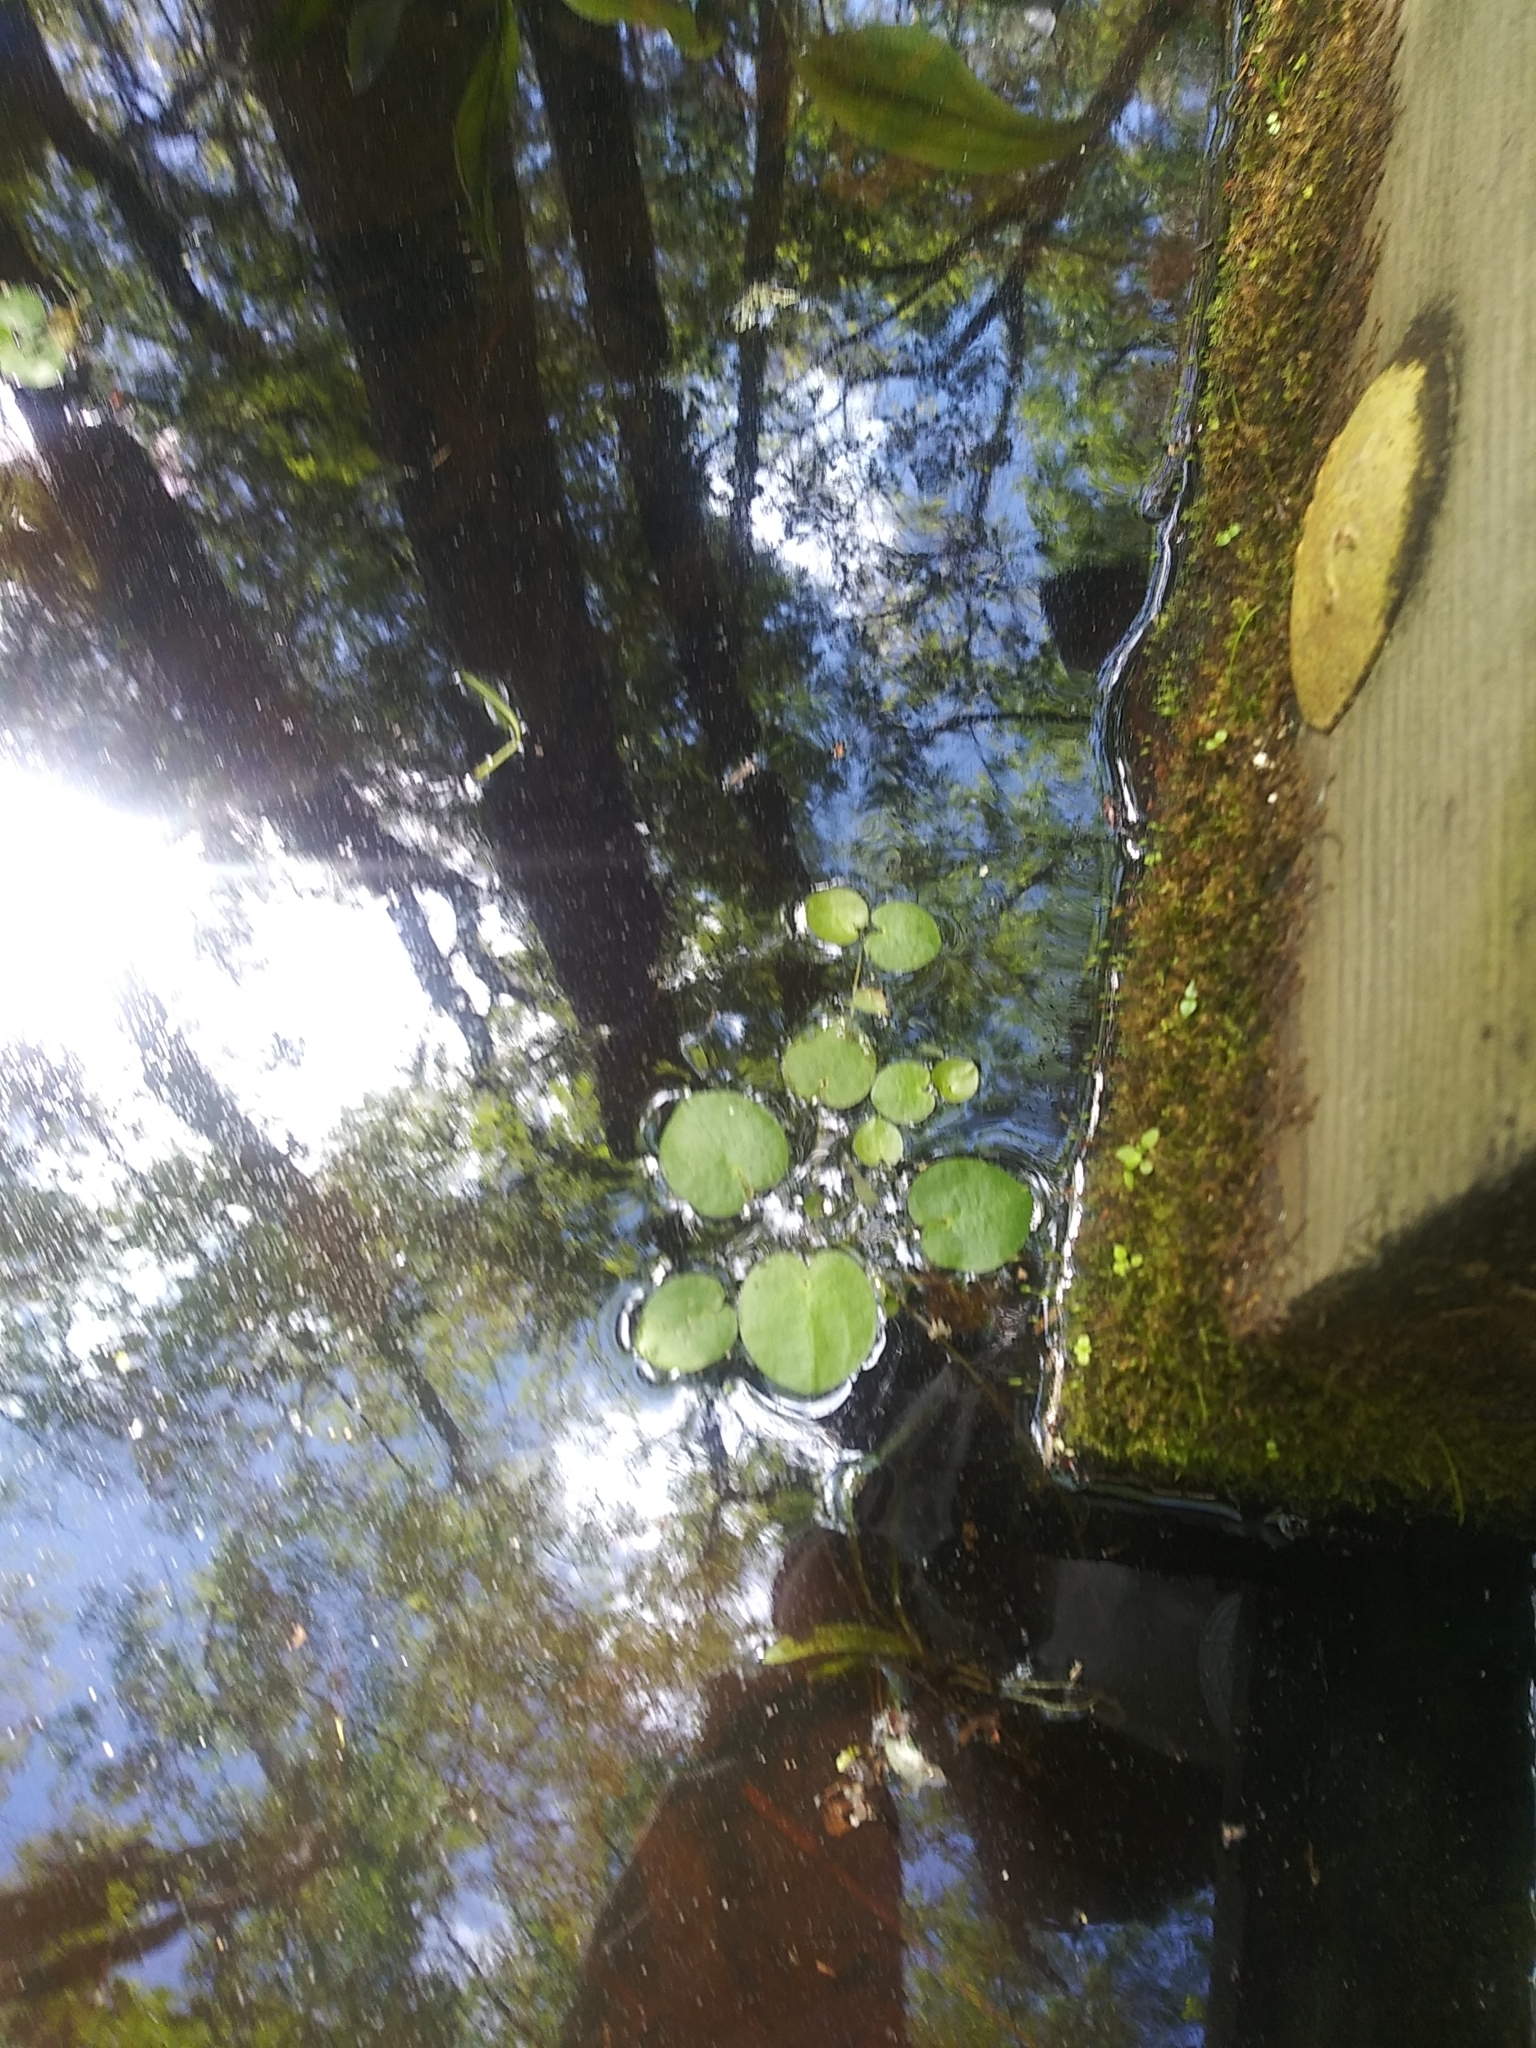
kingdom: Plantae
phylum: Tracheophyta
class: Liliopsida
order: Alismatales
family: Hydrocharitaceae
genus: Hydrocharis
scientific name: Hydrocharis spongia
